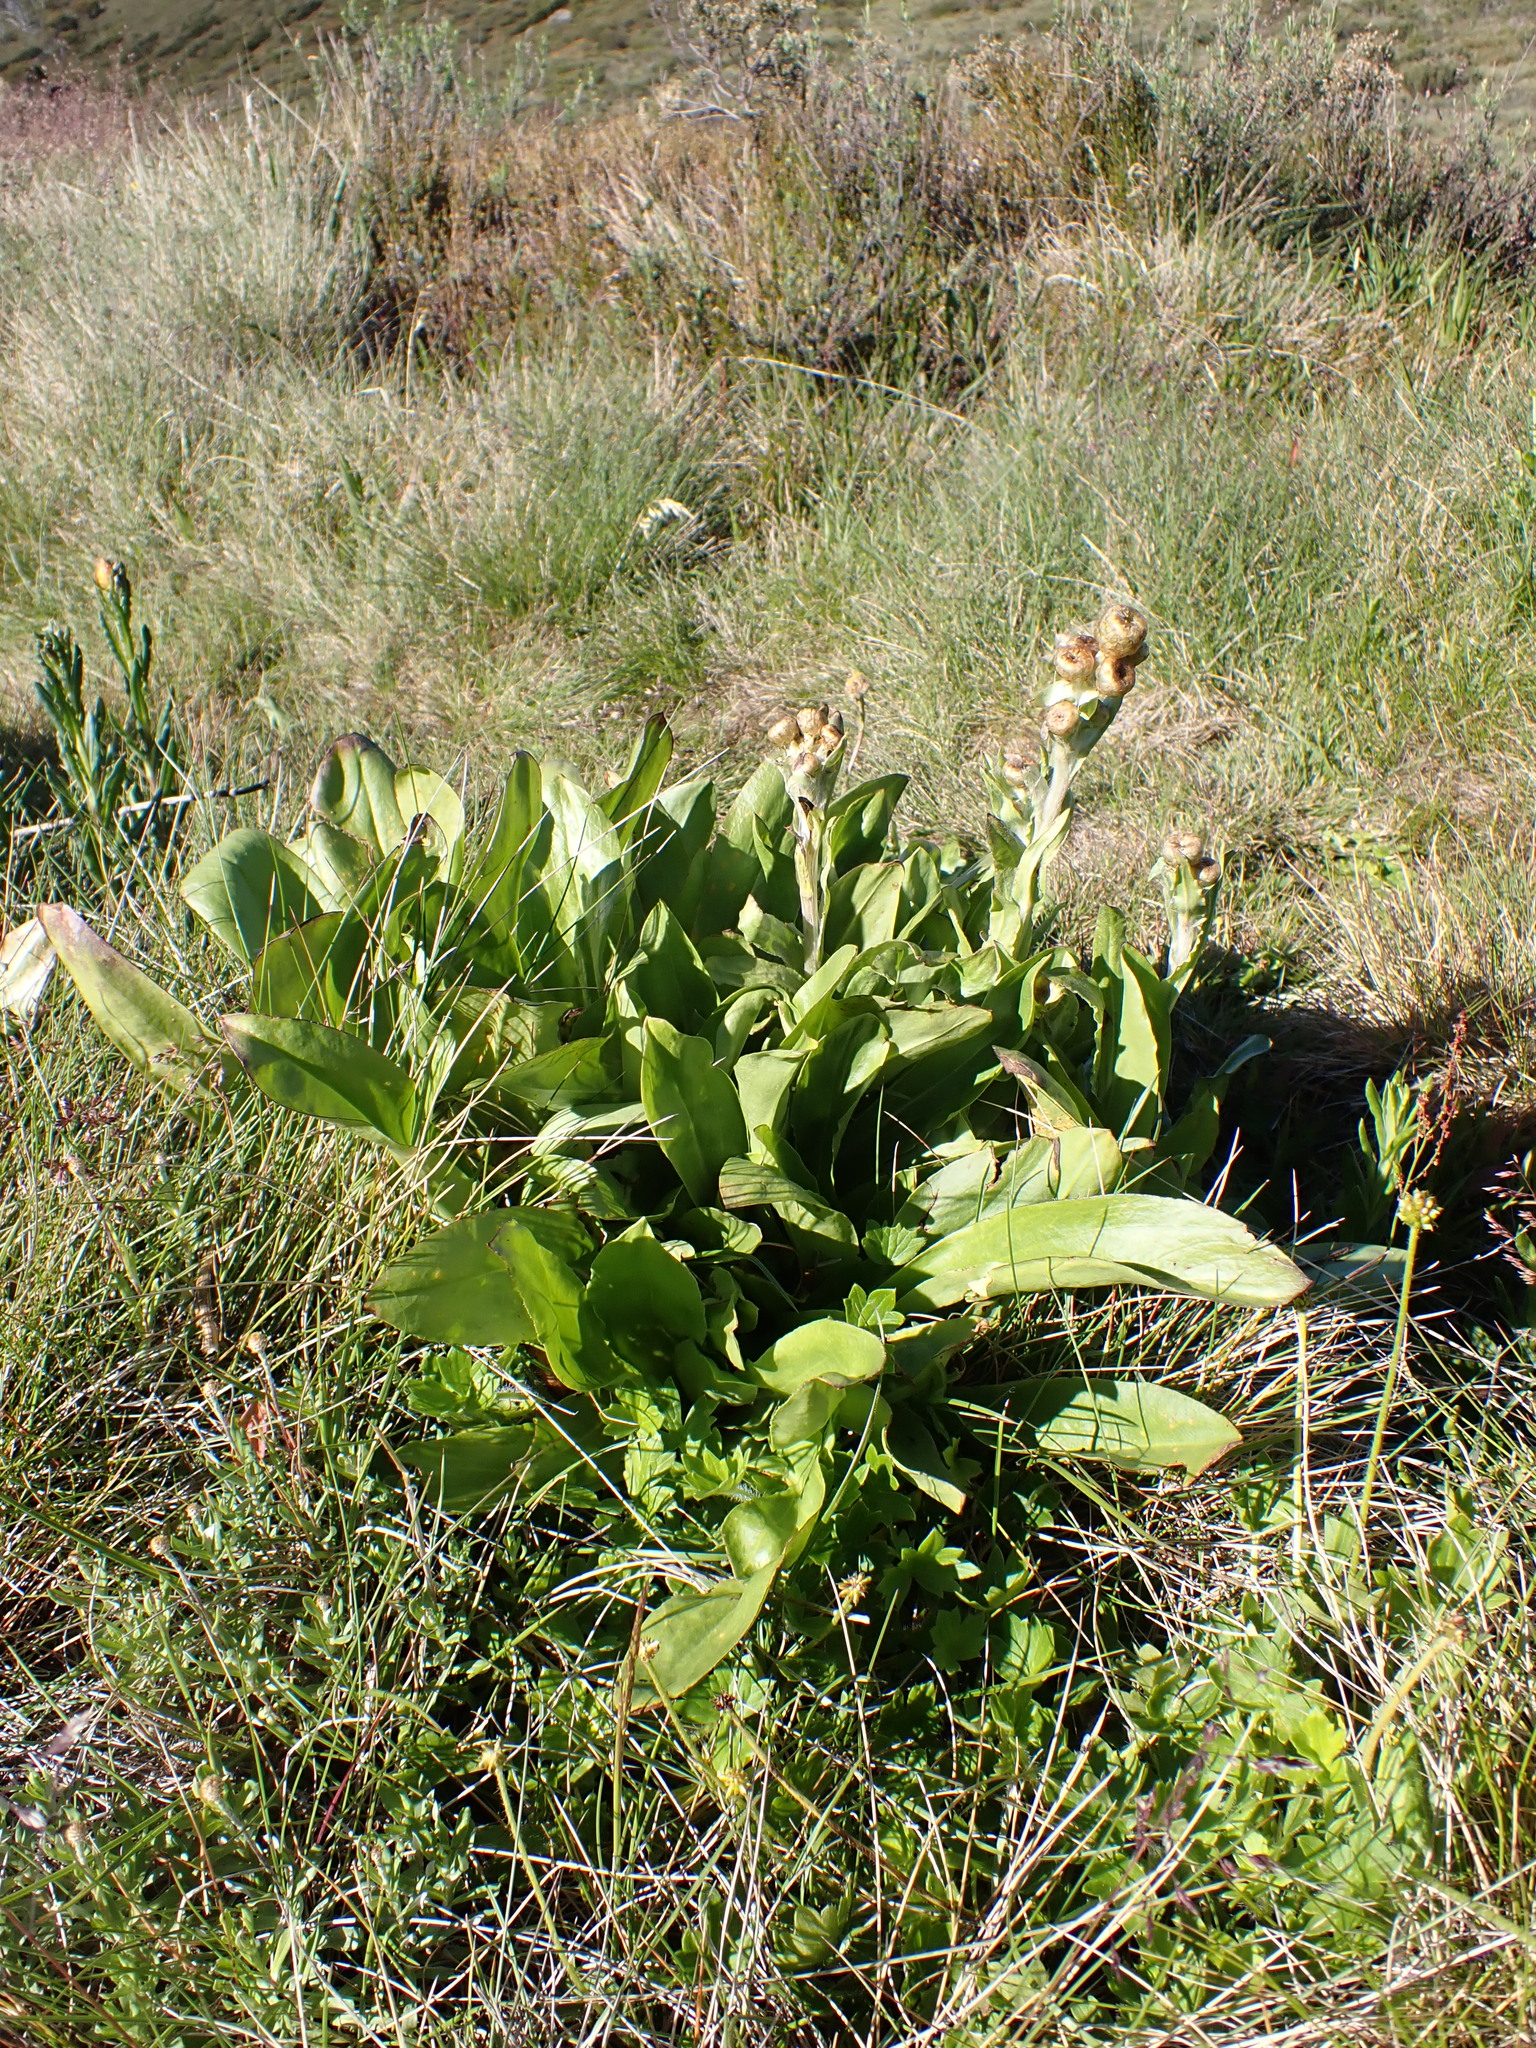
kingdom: Plantae
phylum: Tracheophyta
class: Magnoliopsida
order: Asterales
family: Asteraceae
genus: Podolepis
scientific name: Podolepis robusta
